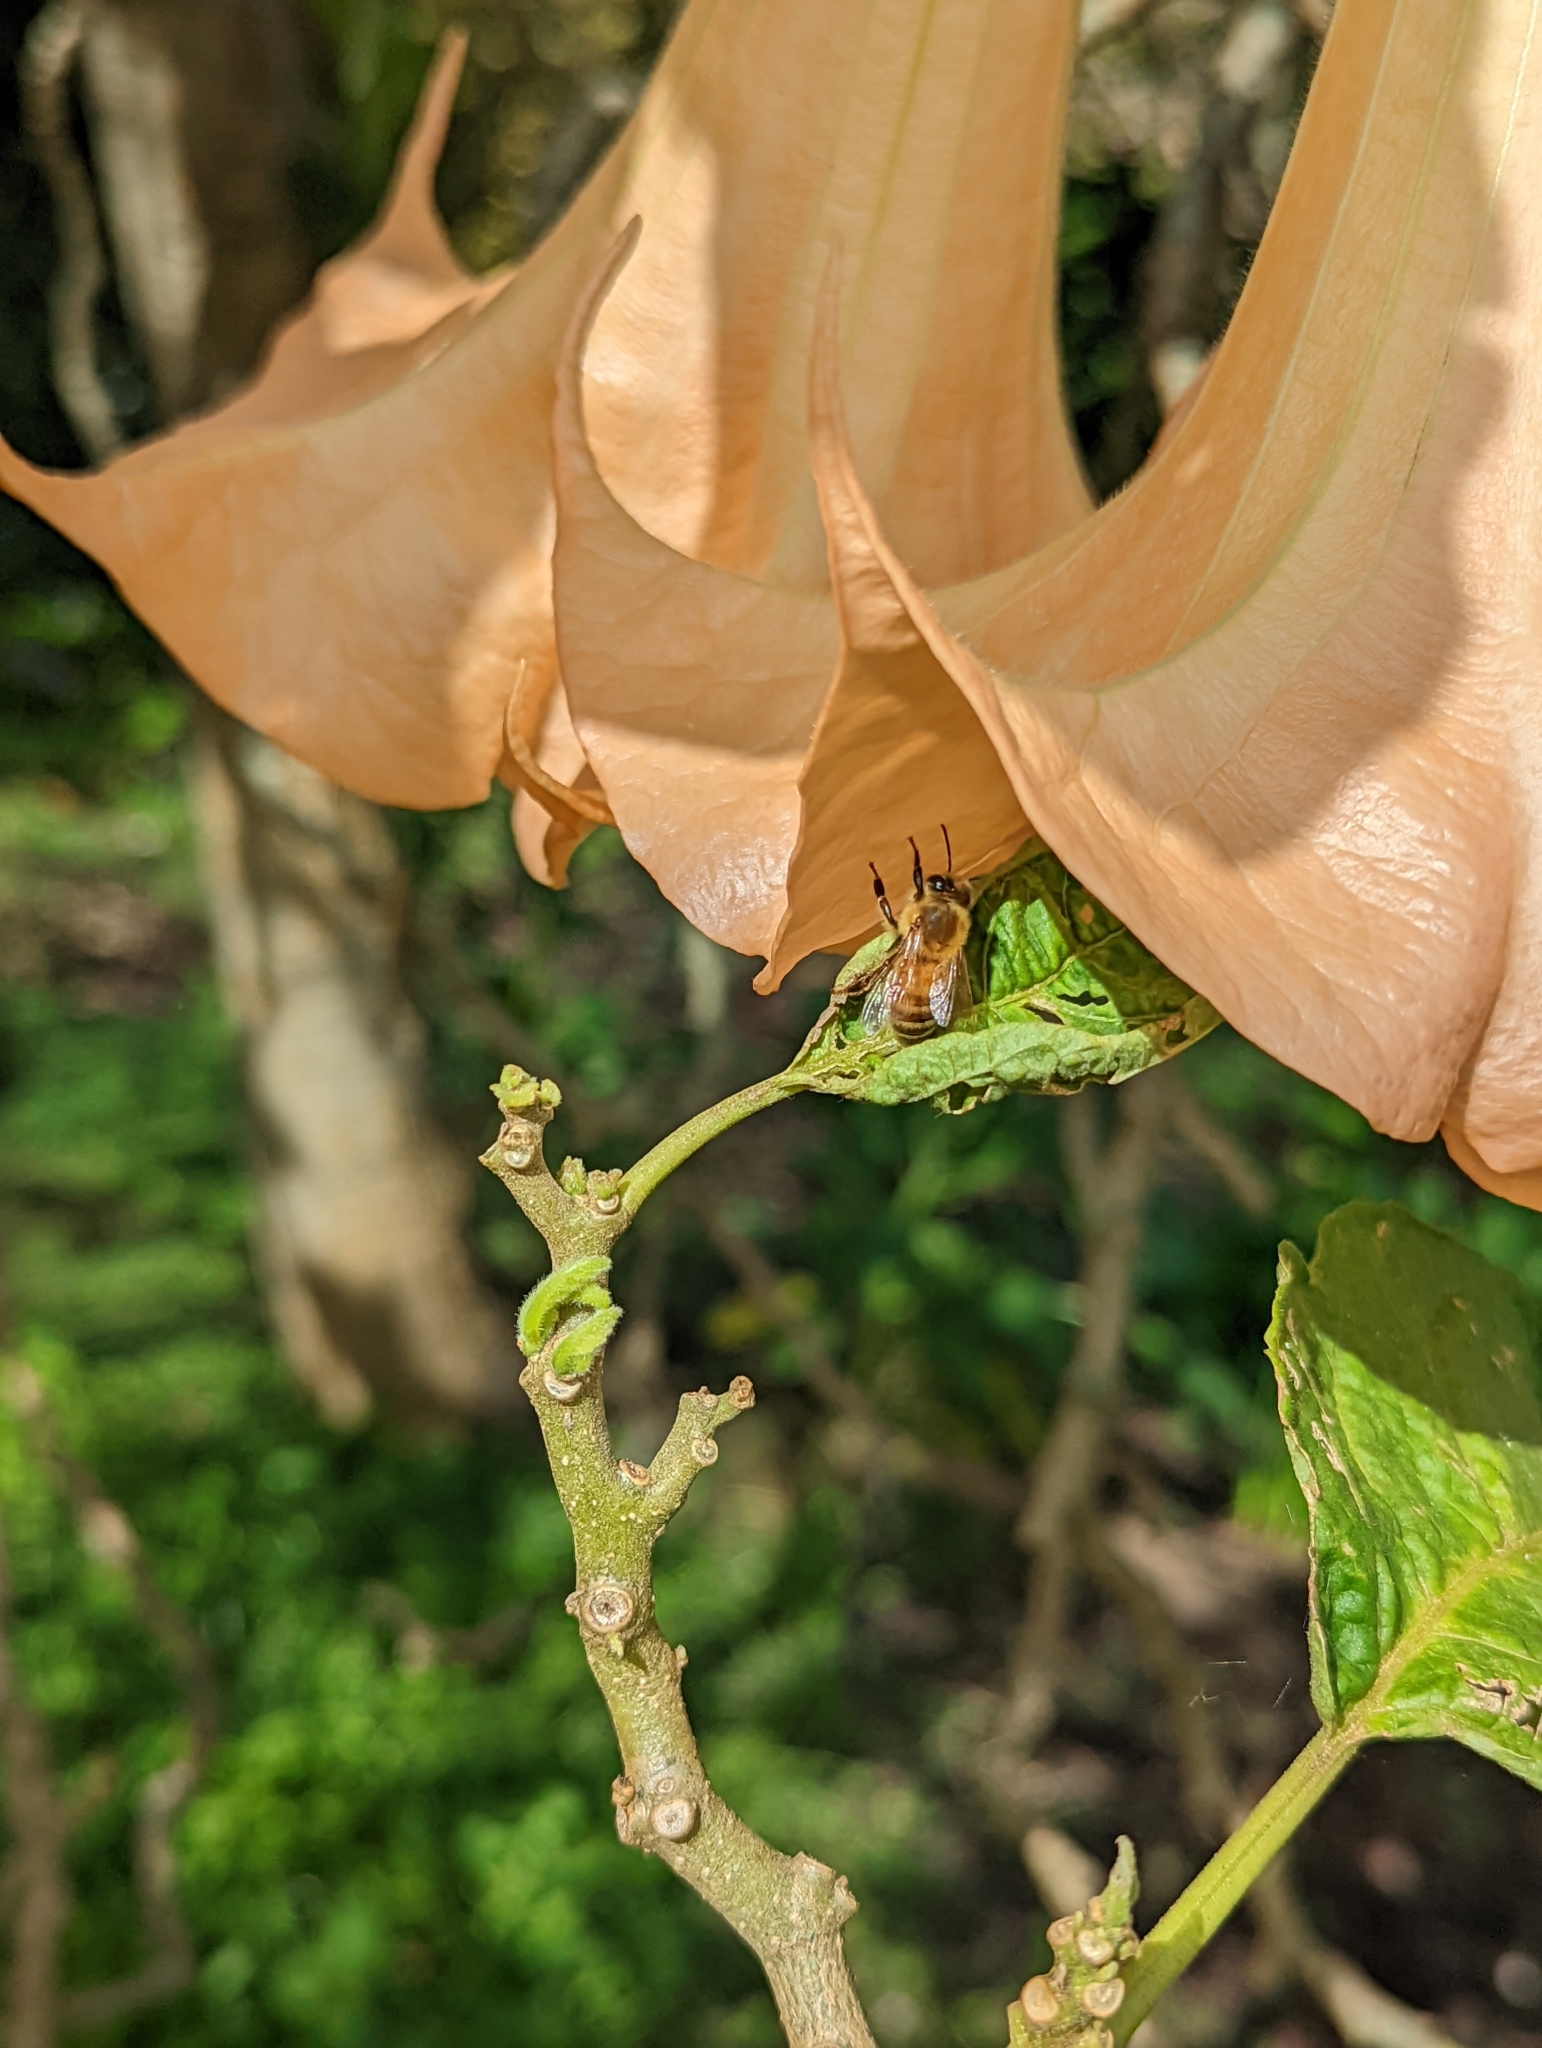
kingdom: Animalia
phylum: Arthropoda
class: Insecta
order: Hymenoptera
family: Apidae
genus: Apis
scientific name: Apis mellifera
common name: Honey bee
